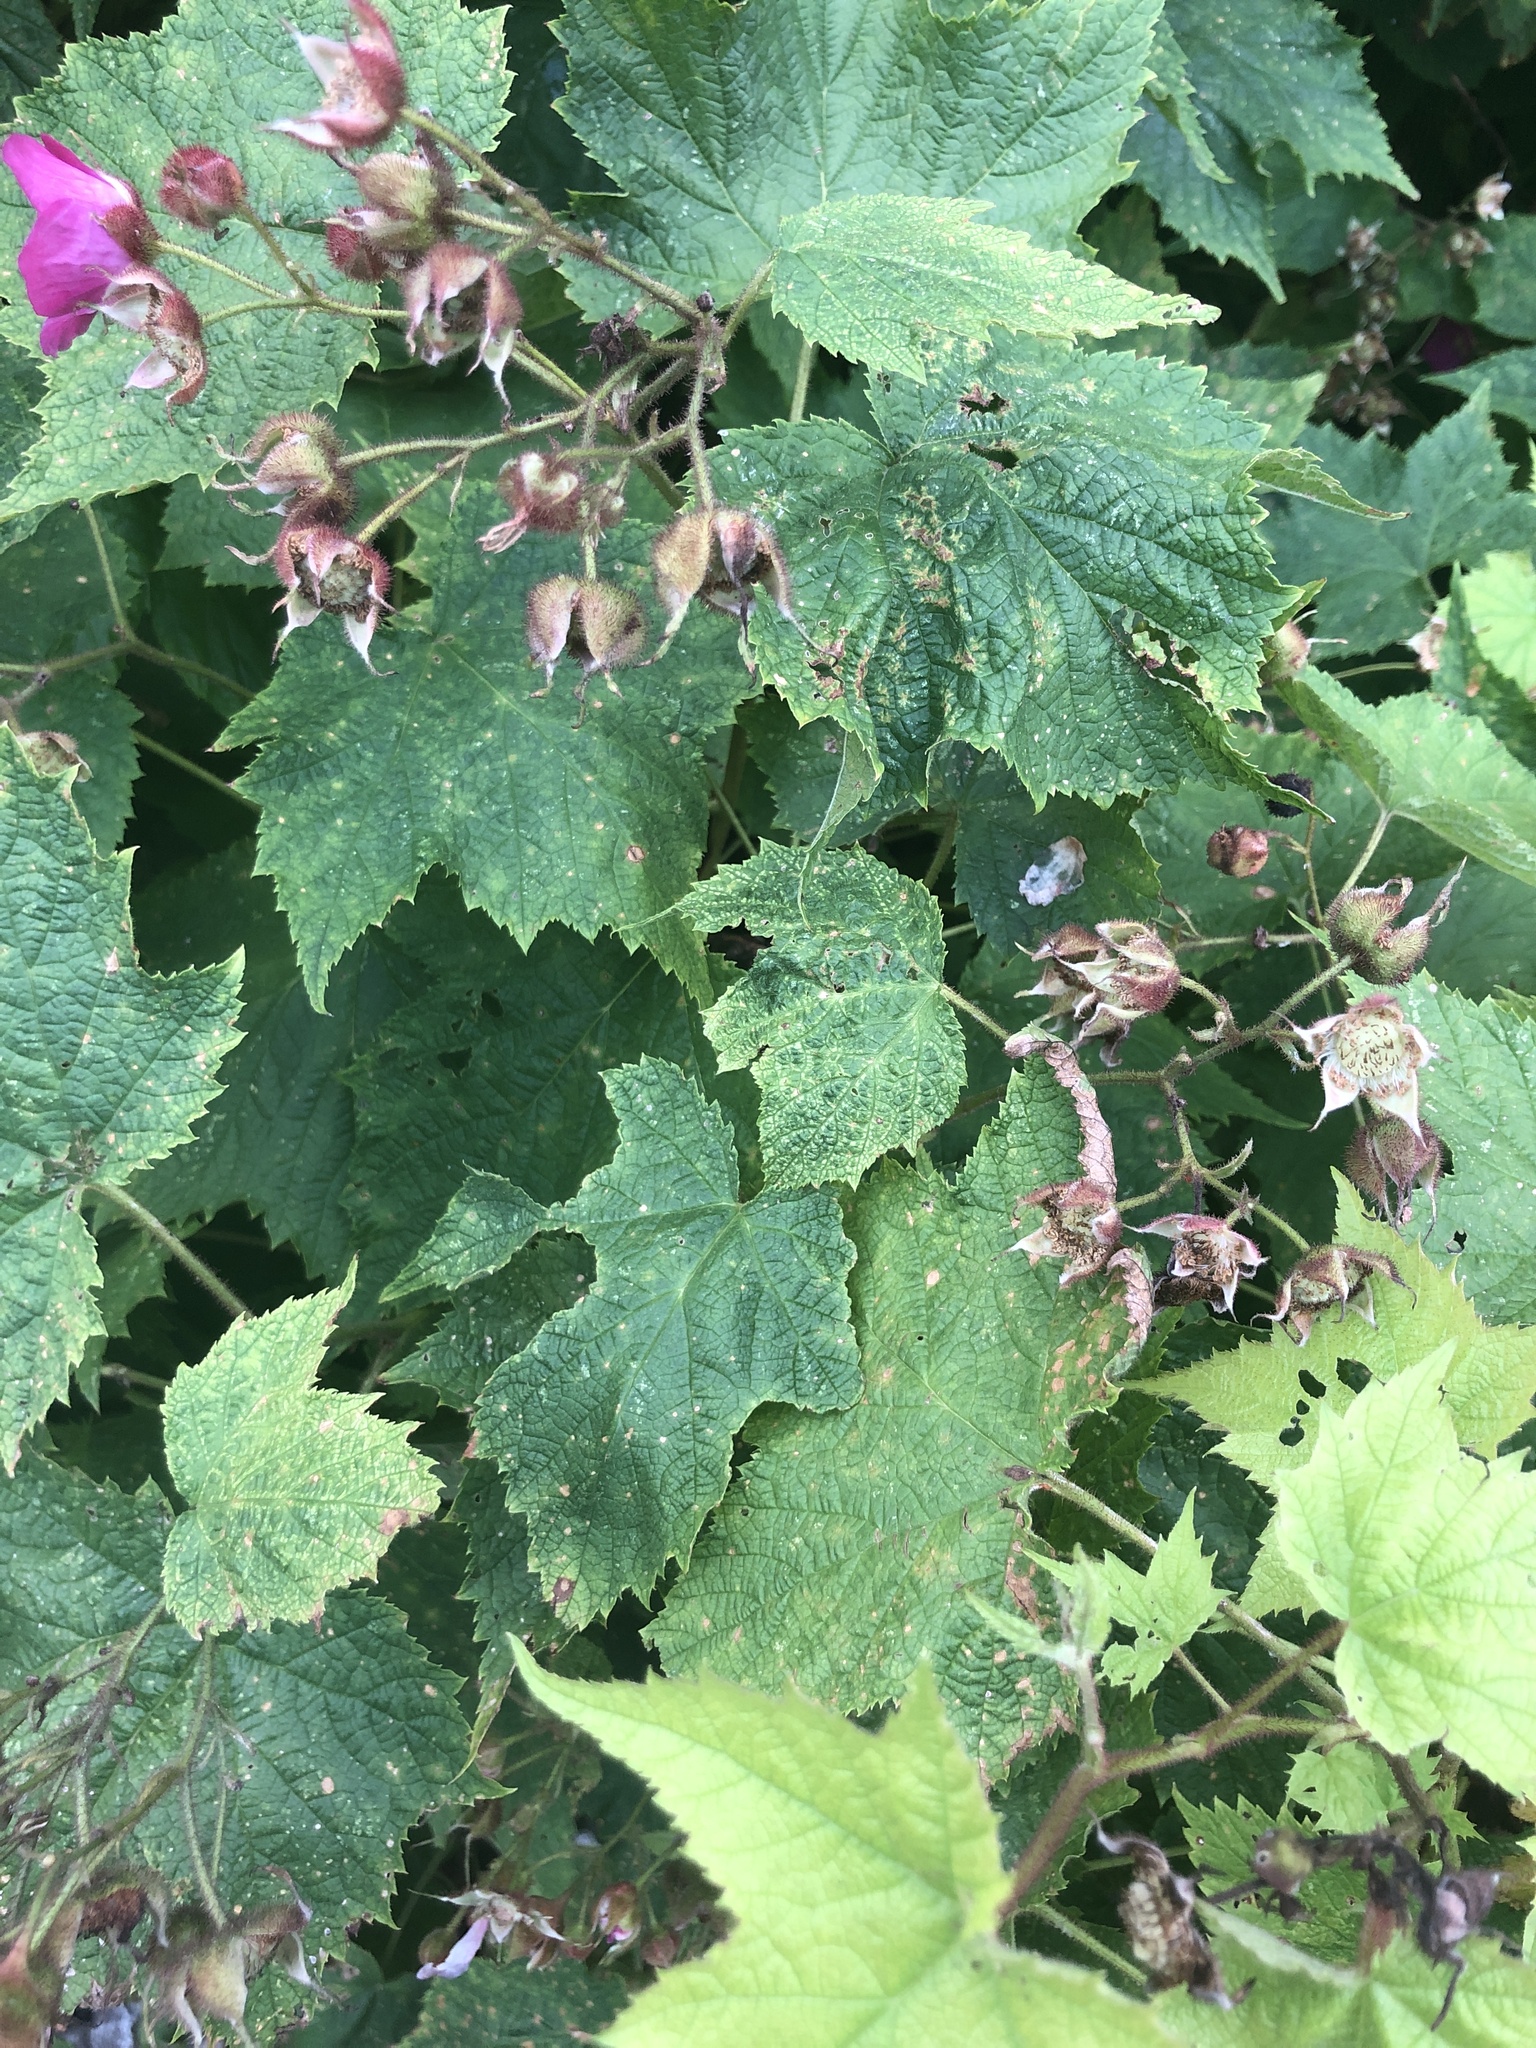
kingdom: Plantae
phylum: Tracheophyta
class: Magnoliopsida
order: Rosales
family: Rosaceae
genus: Rubus
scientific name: Rubus odoratus
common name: Purple-flowered raspberry
